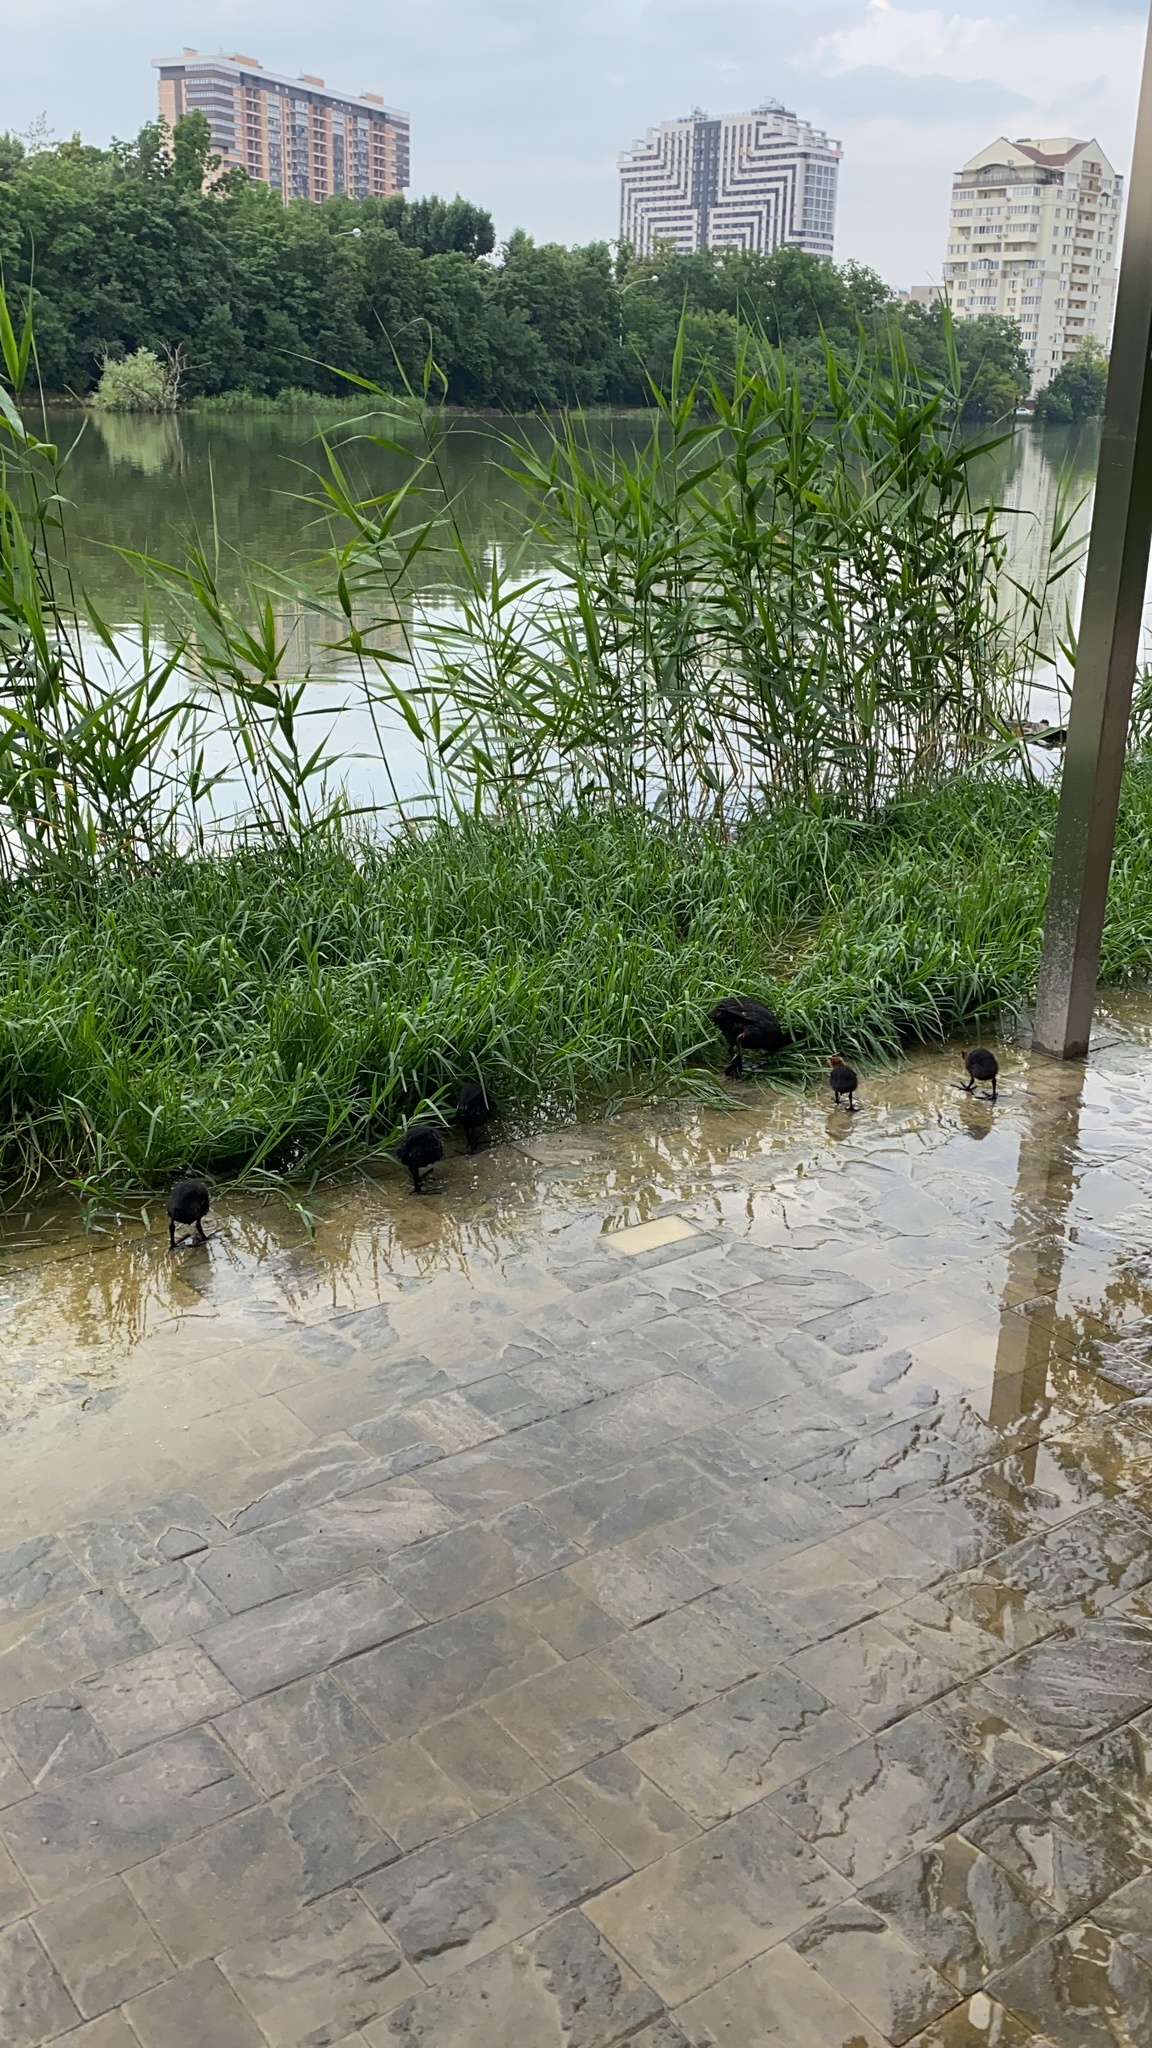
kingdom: Animalia
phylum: Chordata
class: Aves
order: Gruiformes
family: Rallidae
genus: Fulica
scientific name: Fulica atra
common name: Eurasian coot
